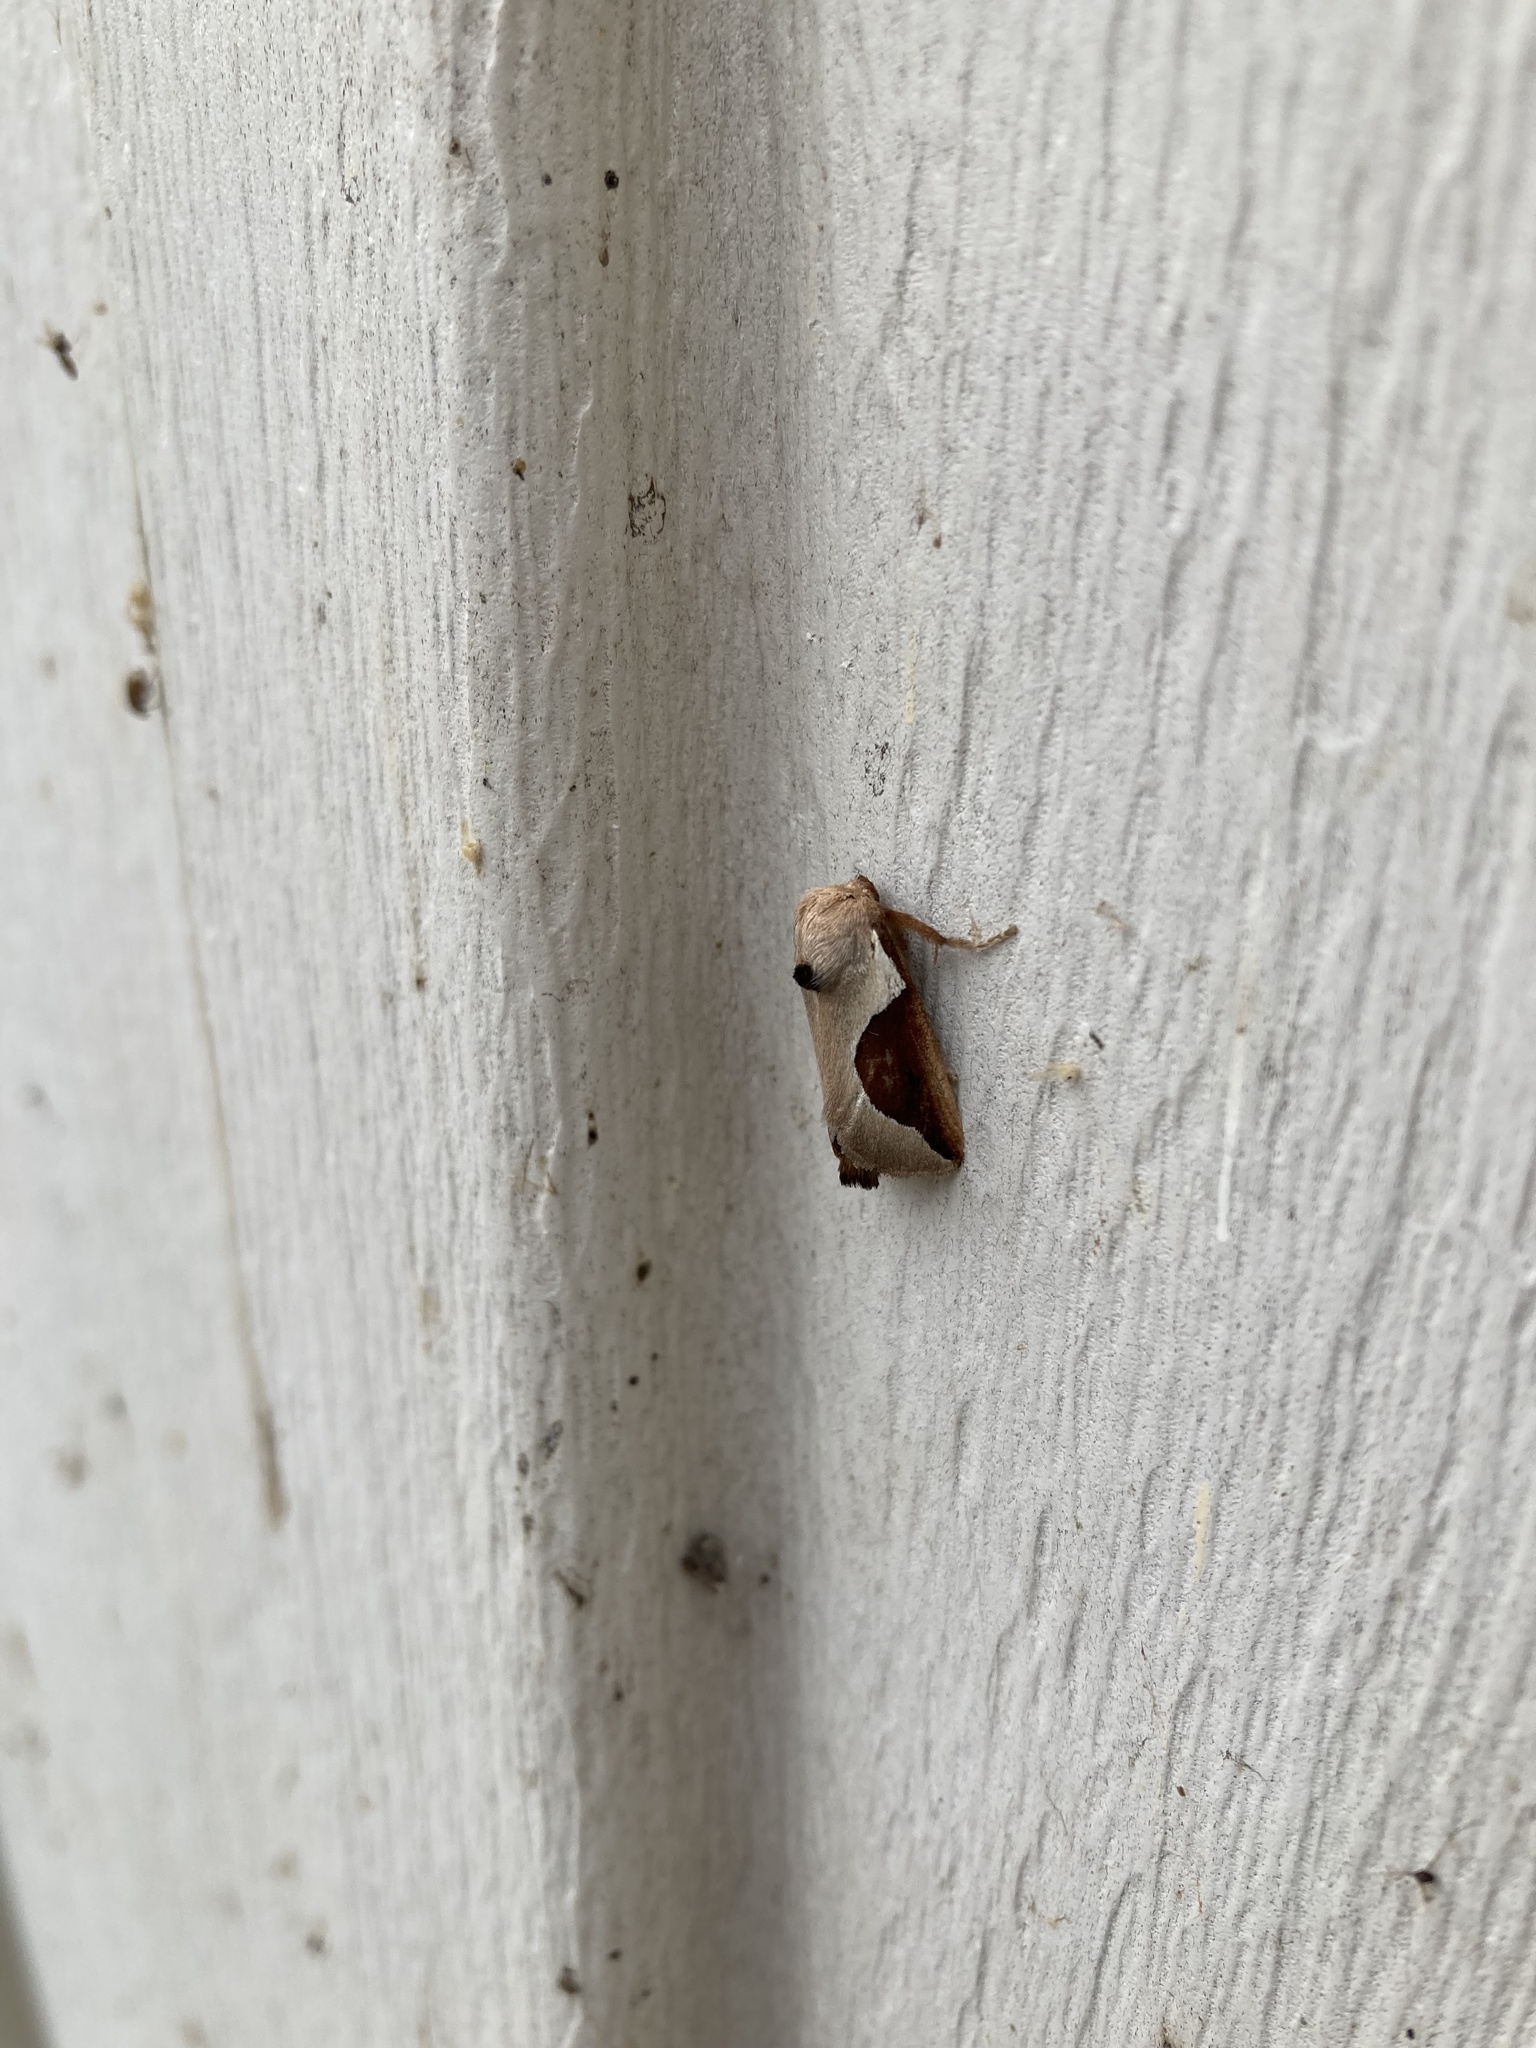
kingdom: Animalia
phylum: Arthropoda
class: Insecta
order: Lepidoptera
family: Limacodidae
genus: Prolimacodes
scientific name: Prolimacodes badia
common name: Skiff moth
